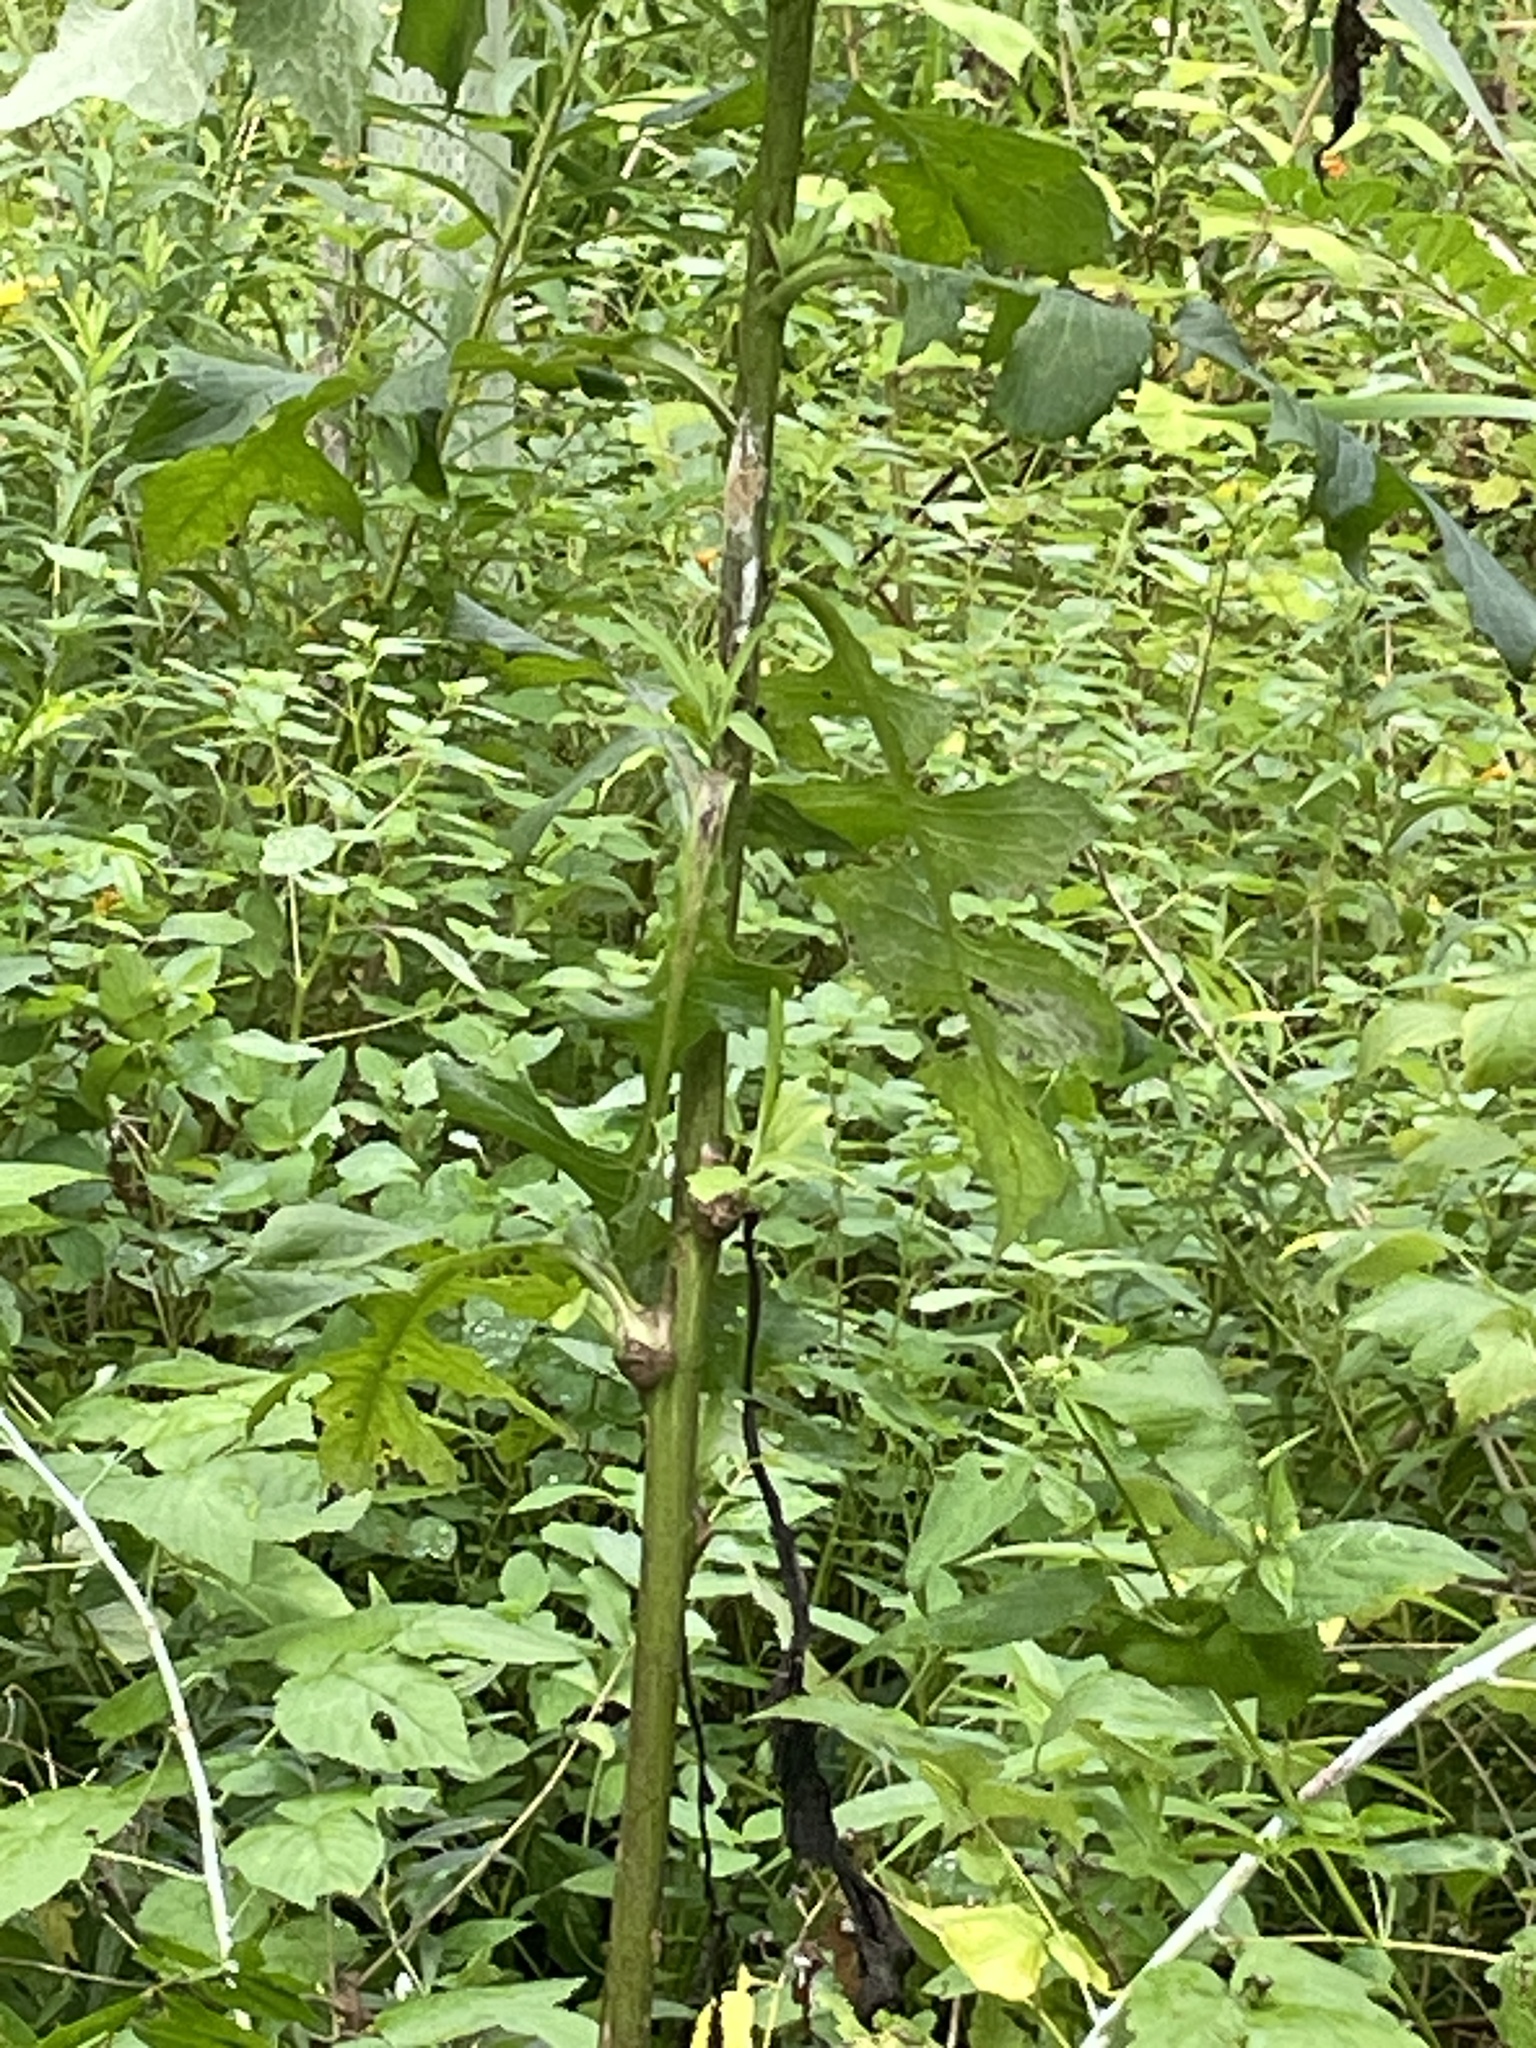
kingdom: Animalia
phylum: Arthropoda
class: Insecta
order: Hymenoptera
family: Cynipidae
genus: Aulacidea
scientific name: Aulacidea
